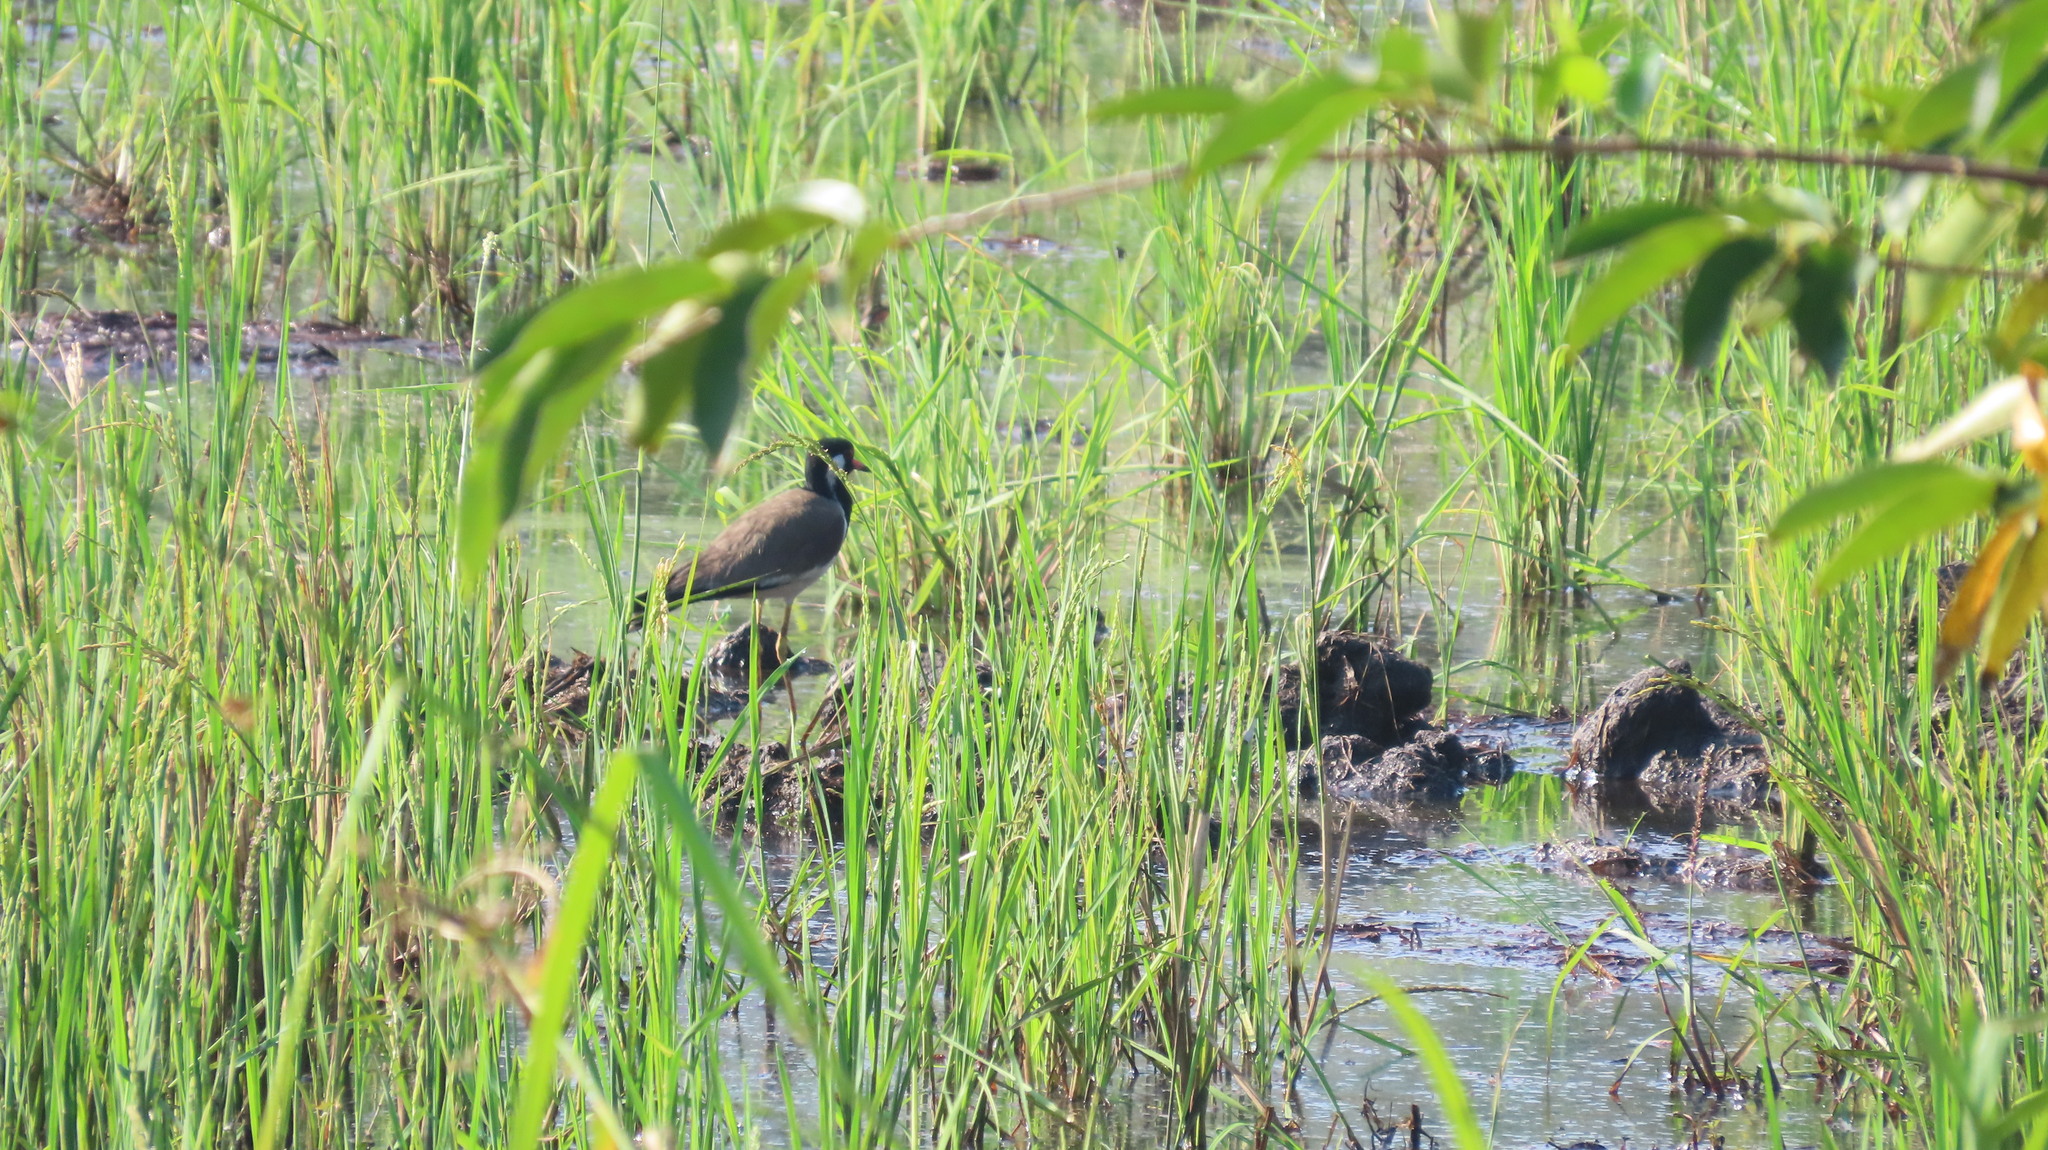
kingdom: Animalia
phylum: Chordata
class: Aves
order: Charadriiformes
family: Charadriidae
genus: Vanellus
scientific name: Vanellus indicus
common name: Red-wattled lapwing
